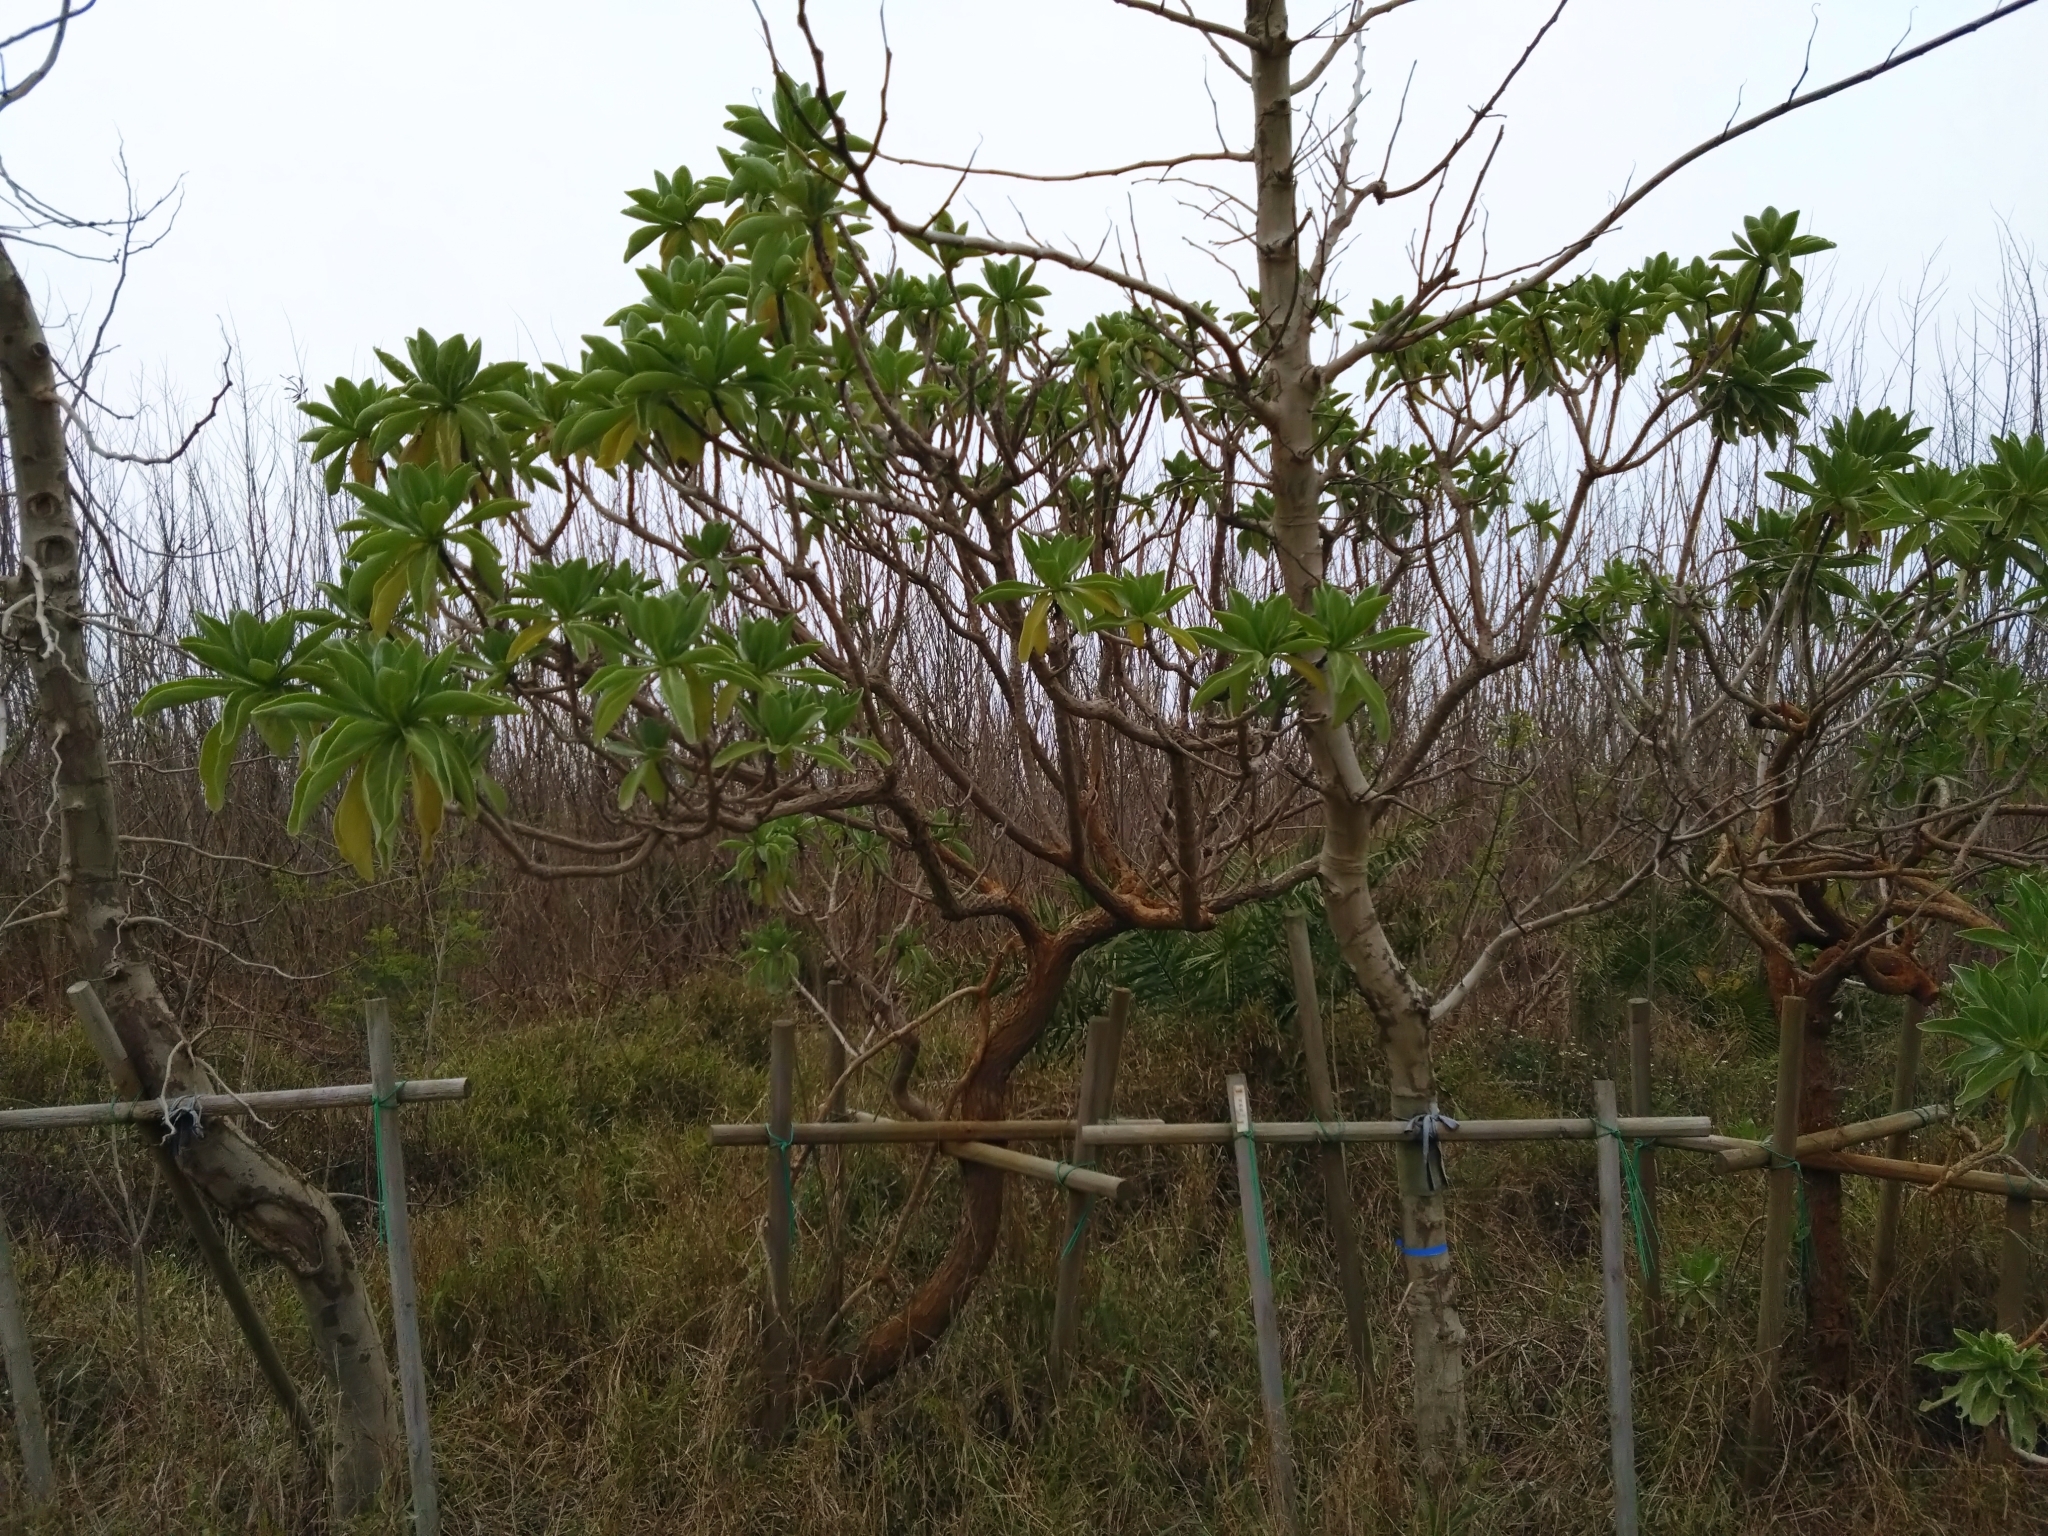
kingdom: Plantae
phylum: Tracheophyta
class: Magnoliopsida
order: Boraginales
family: Heliotropiaceae
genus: Heliotropium
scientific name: Heliotropium velutinum
